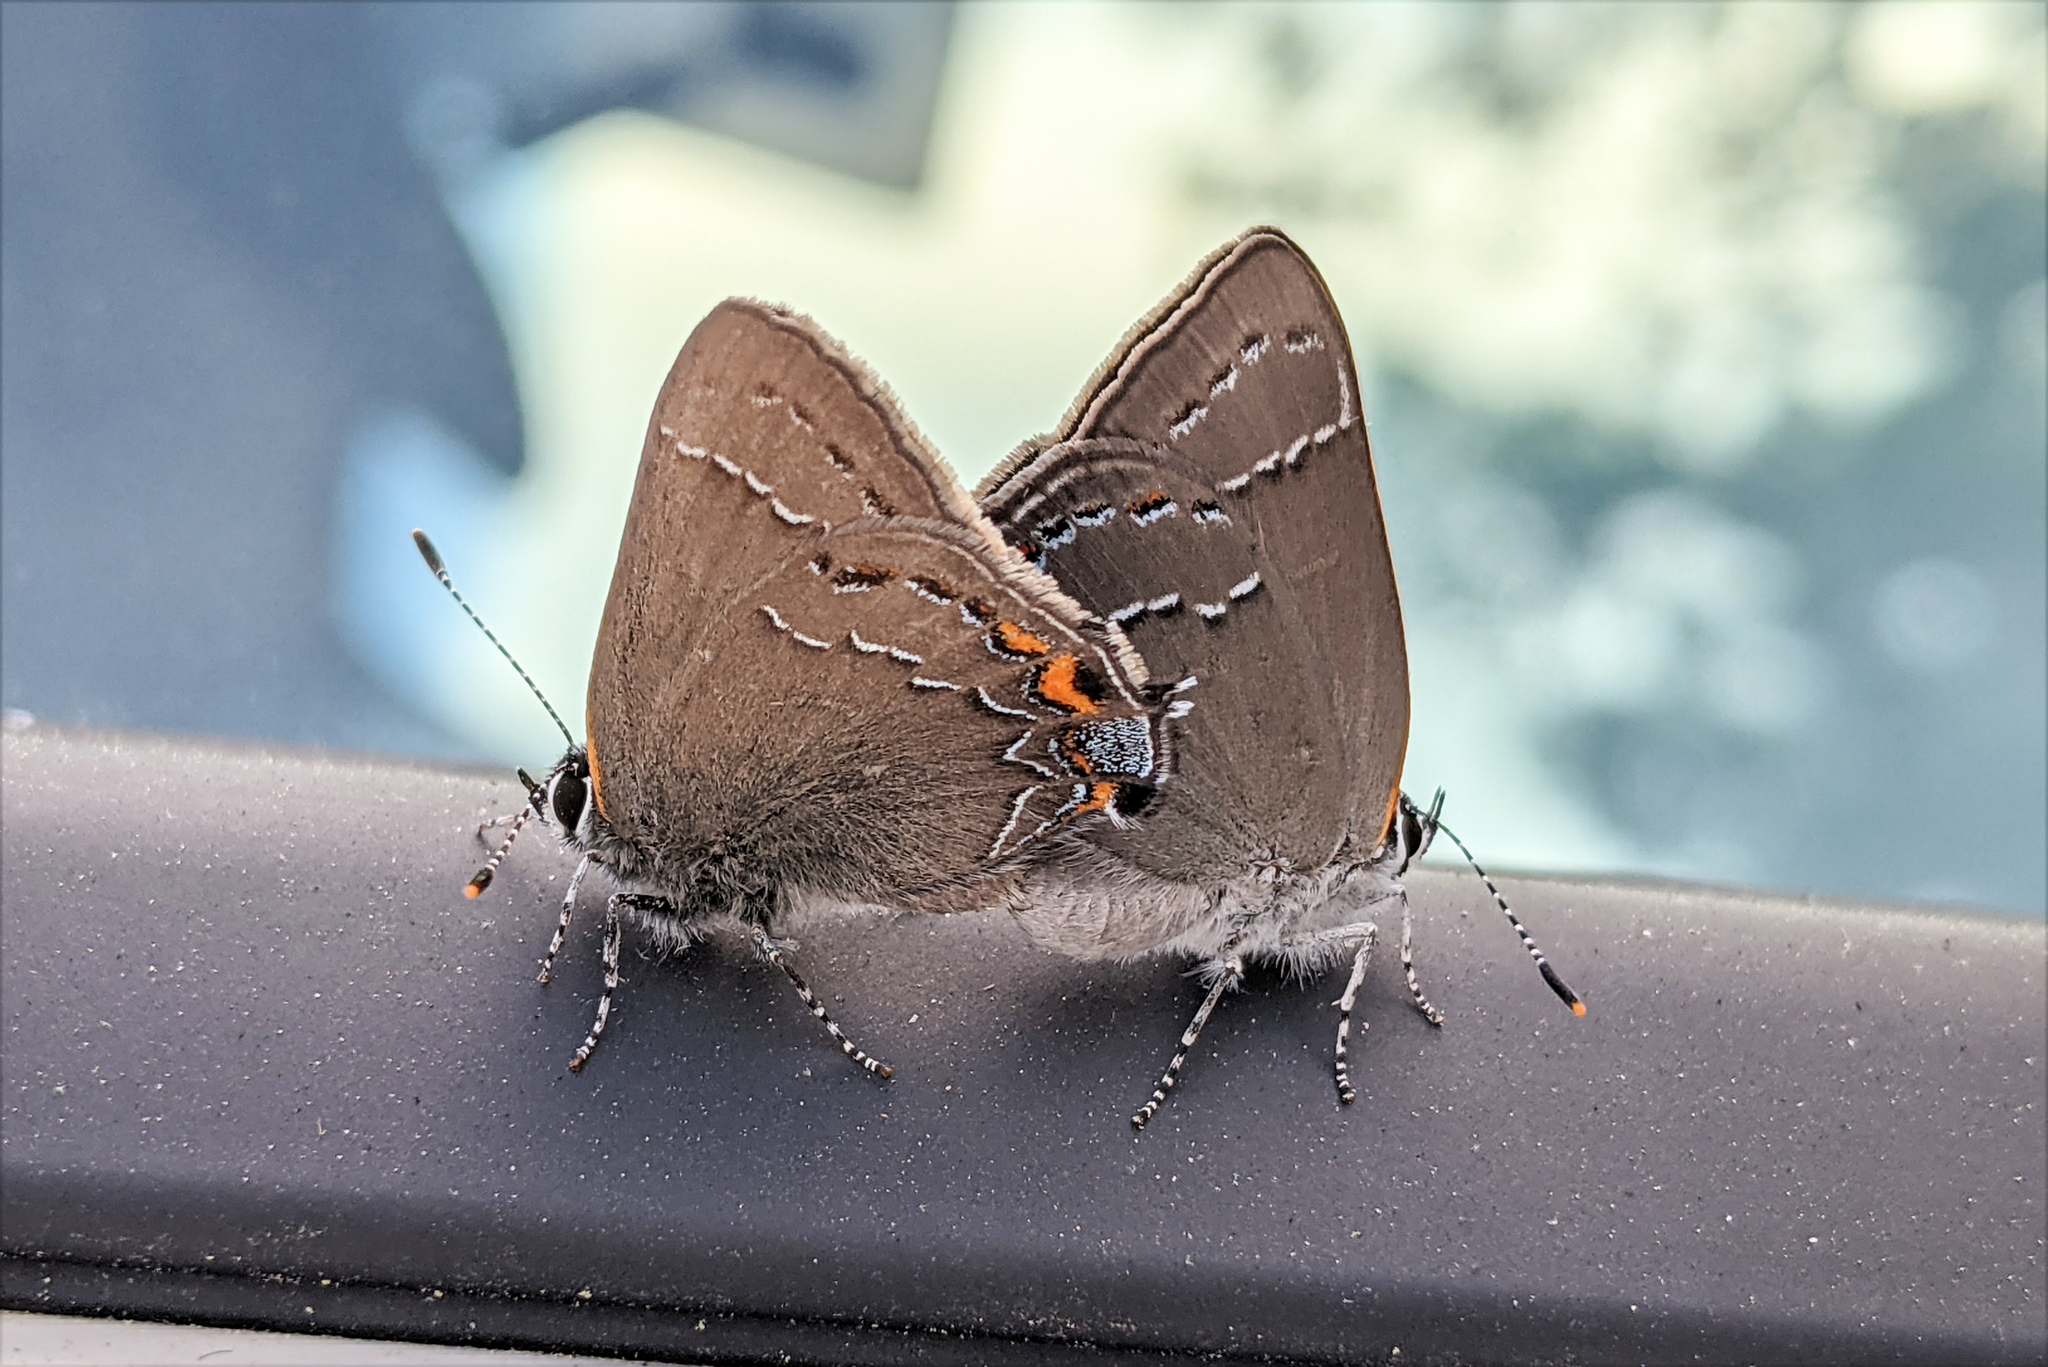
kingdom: Animalia
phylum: Arthropoda
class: Insecta
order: Lepidoptera
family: Lycaenidae
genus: Fixsenia
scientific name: Fixsenia ontario
